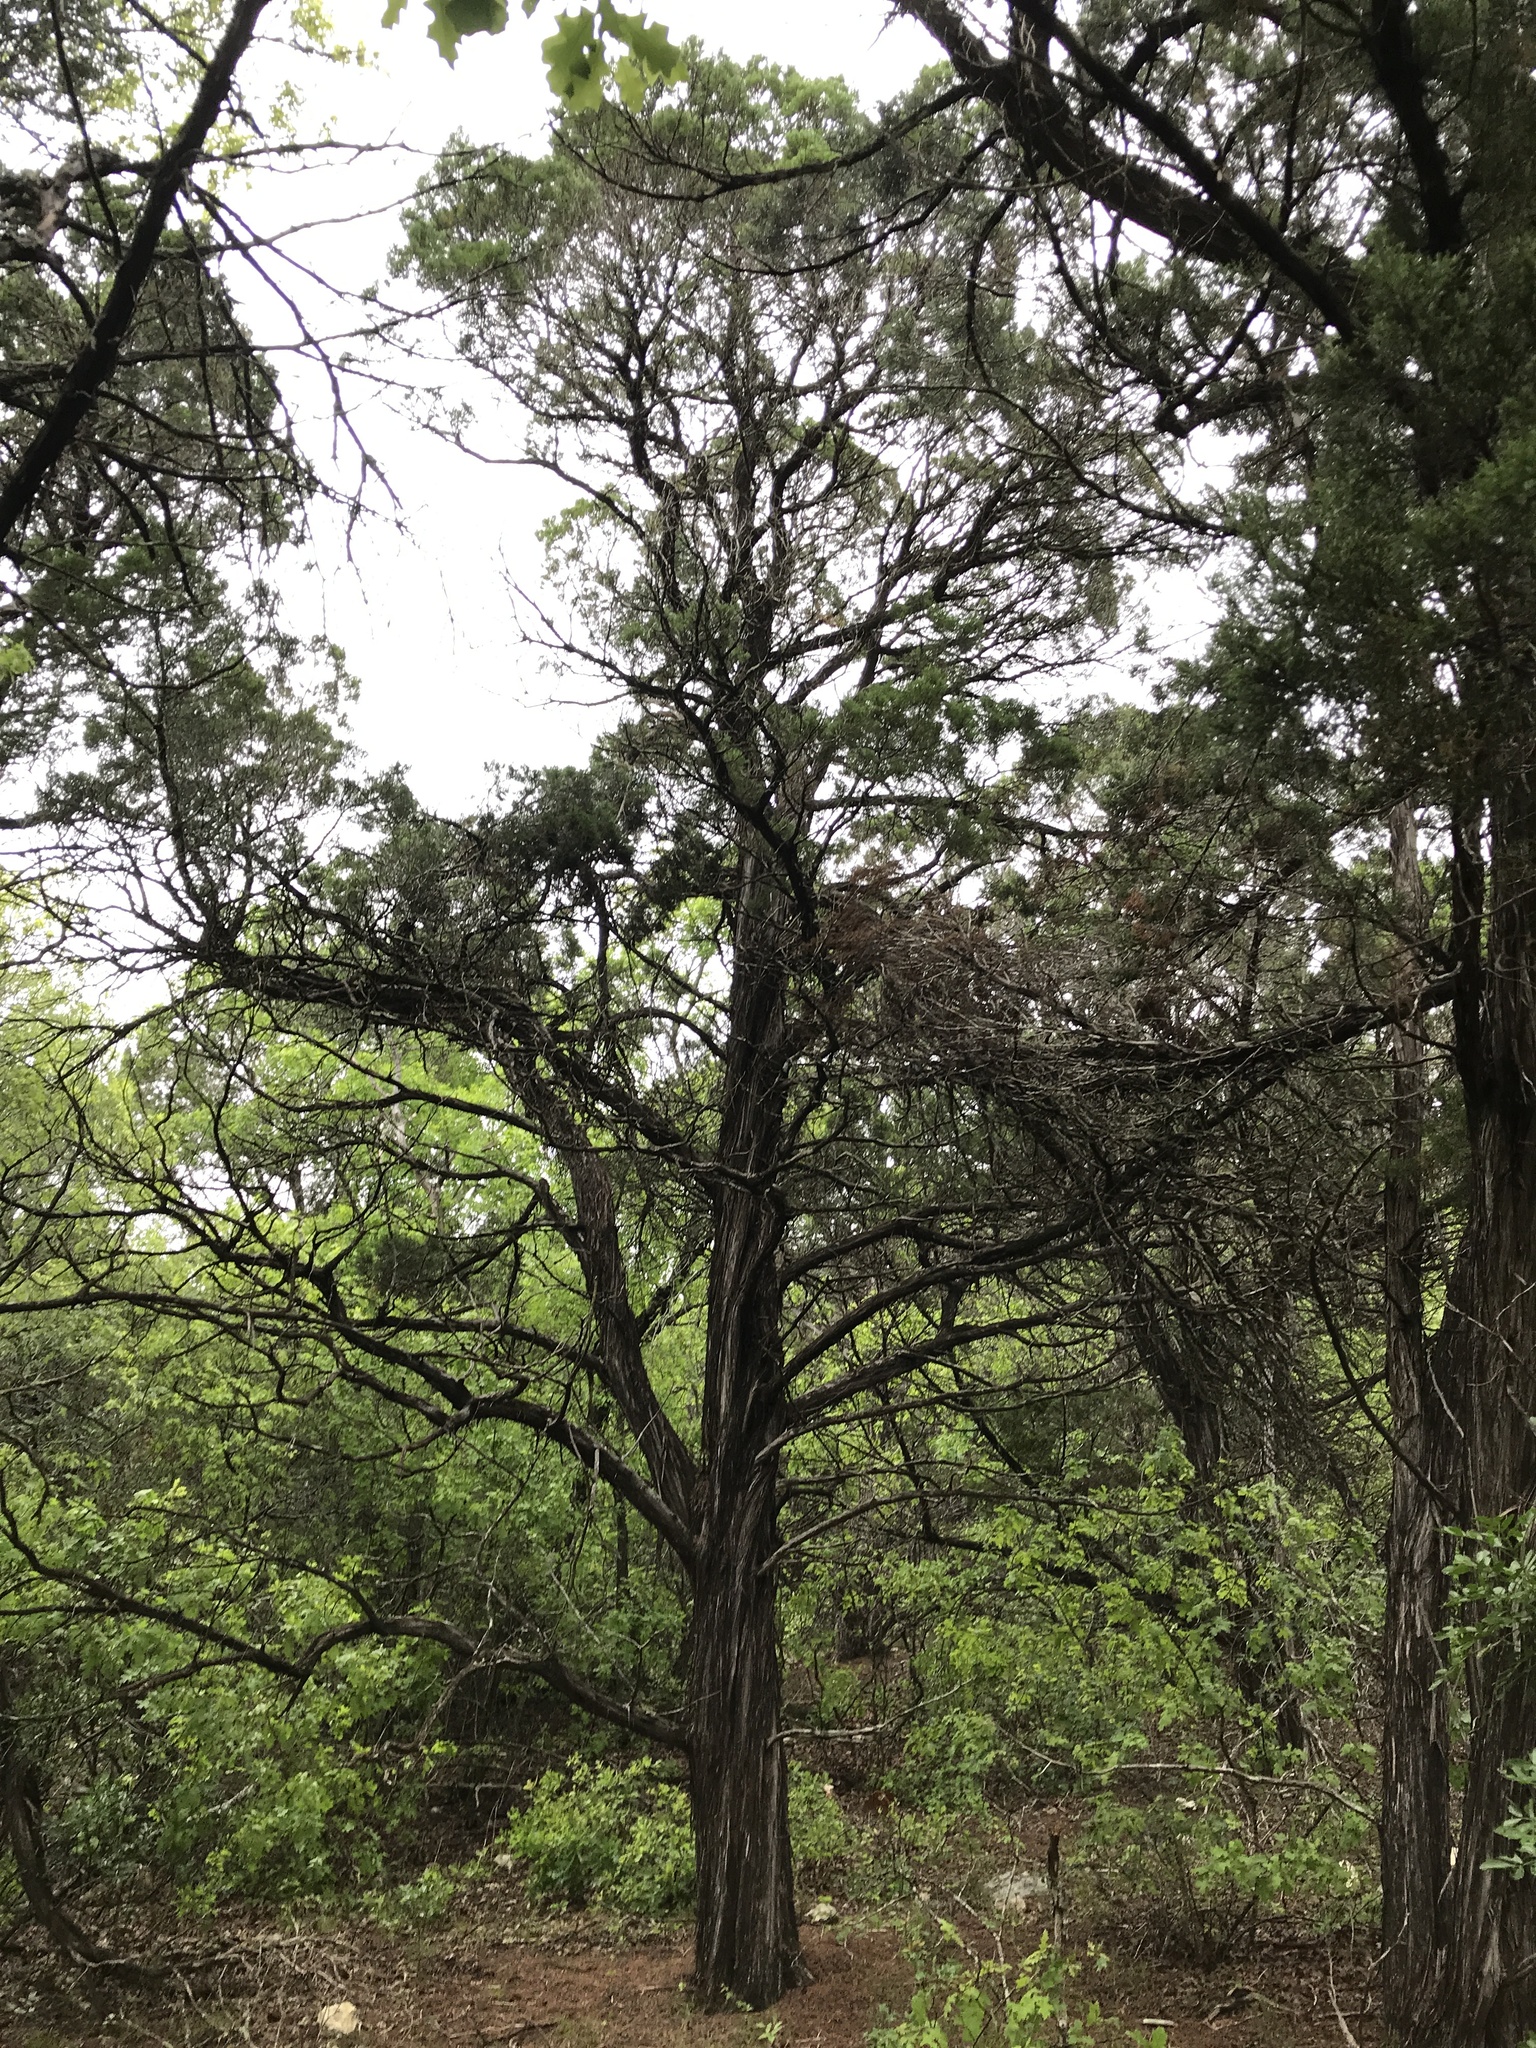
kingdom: Plantae
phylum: Tracheophyta
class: Pinopsida
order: Pinales
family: Cupressaceae
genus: Juniperus
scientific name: Juniperus ashei
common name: Mexican juniper
